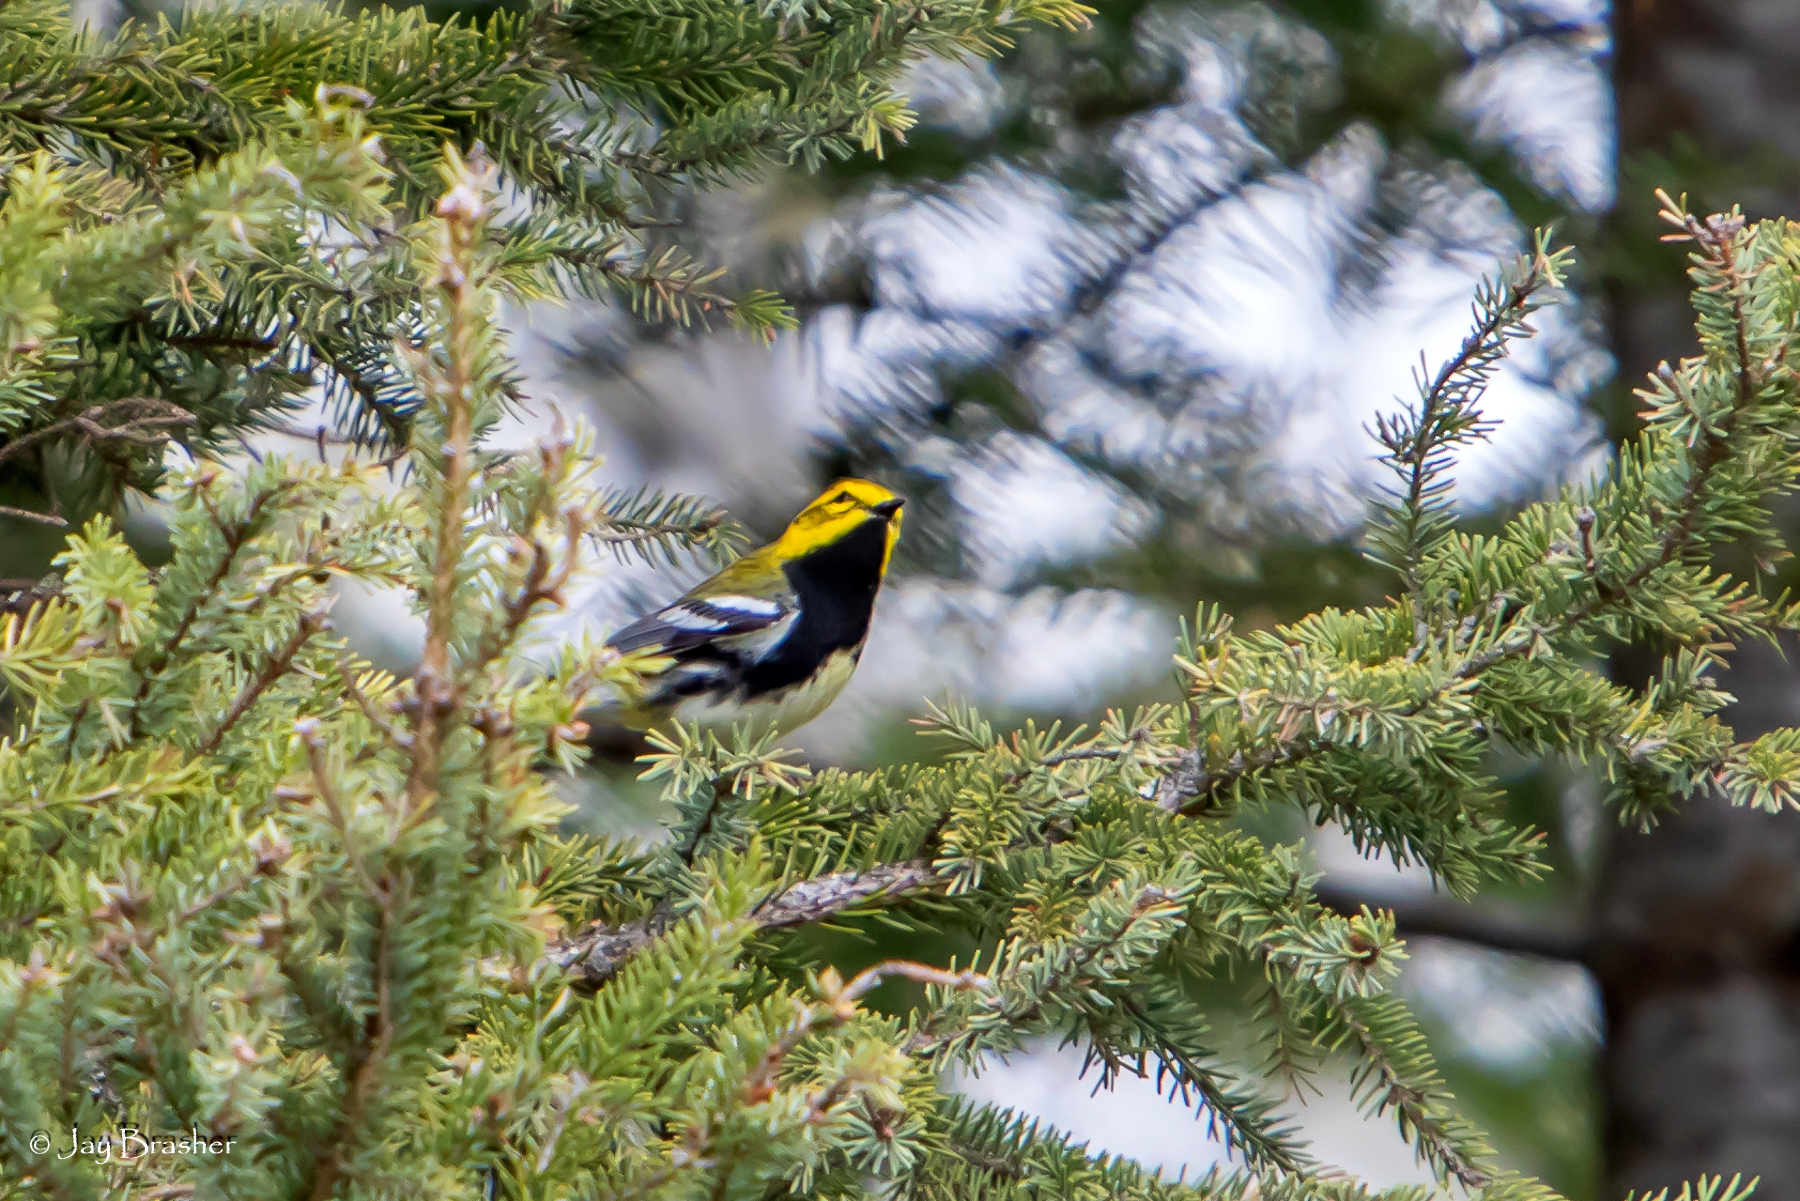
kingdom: Animalia
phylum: Chordata
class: Aves
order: Passeriformes
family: Parulidae
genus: Setophaga
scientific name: Setophaga virens
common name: Black-throated green warbler
